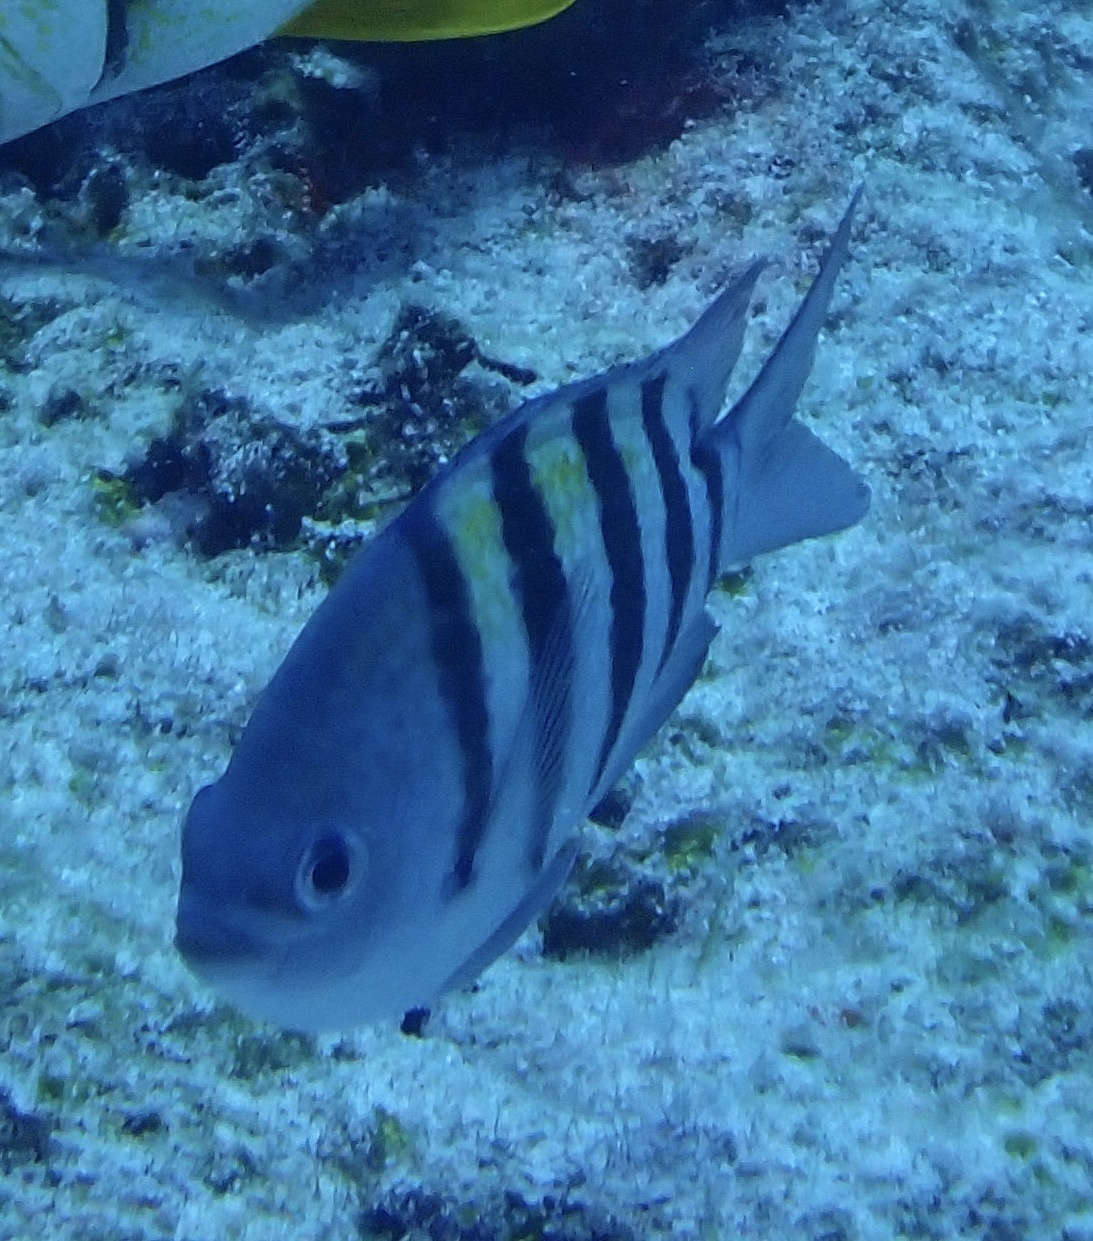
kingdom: Animalia
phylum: Chordata
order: Perciformes
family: Pomacentridae
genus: Abudefduf
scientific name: Abudefduf saxatilis
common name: Sergeant major
